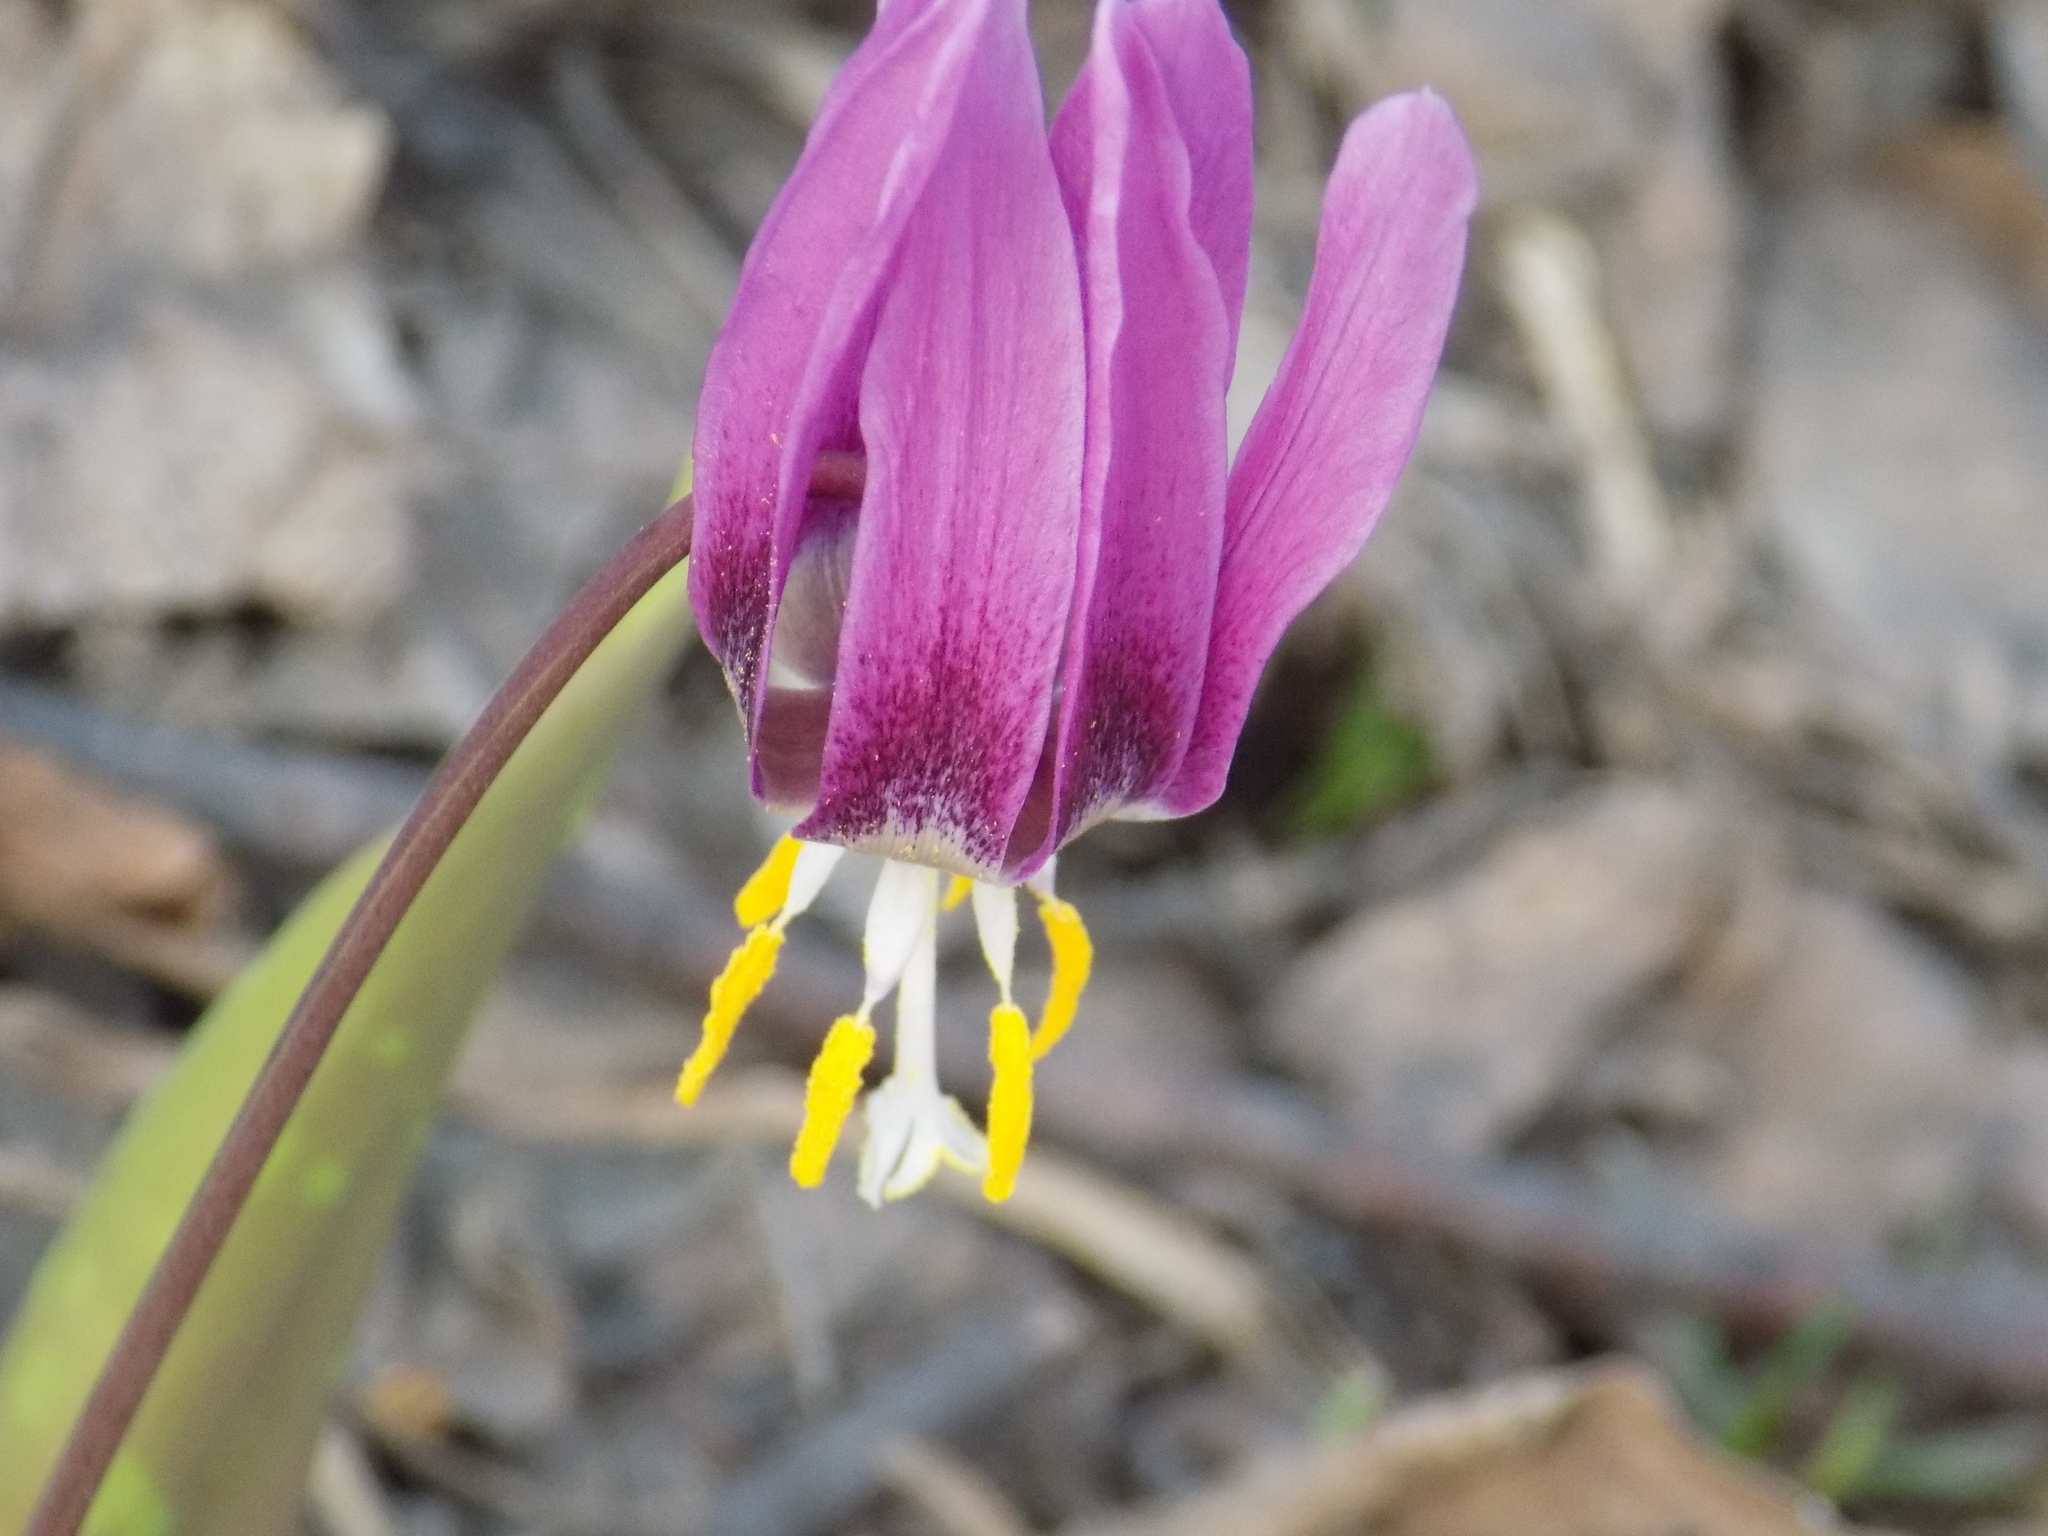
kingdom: Plantae
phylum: Tracheophyta
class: Liliopsida
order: Liliales
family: Liliaceae
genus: Erythronium
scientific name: Erythronium sibiricum
